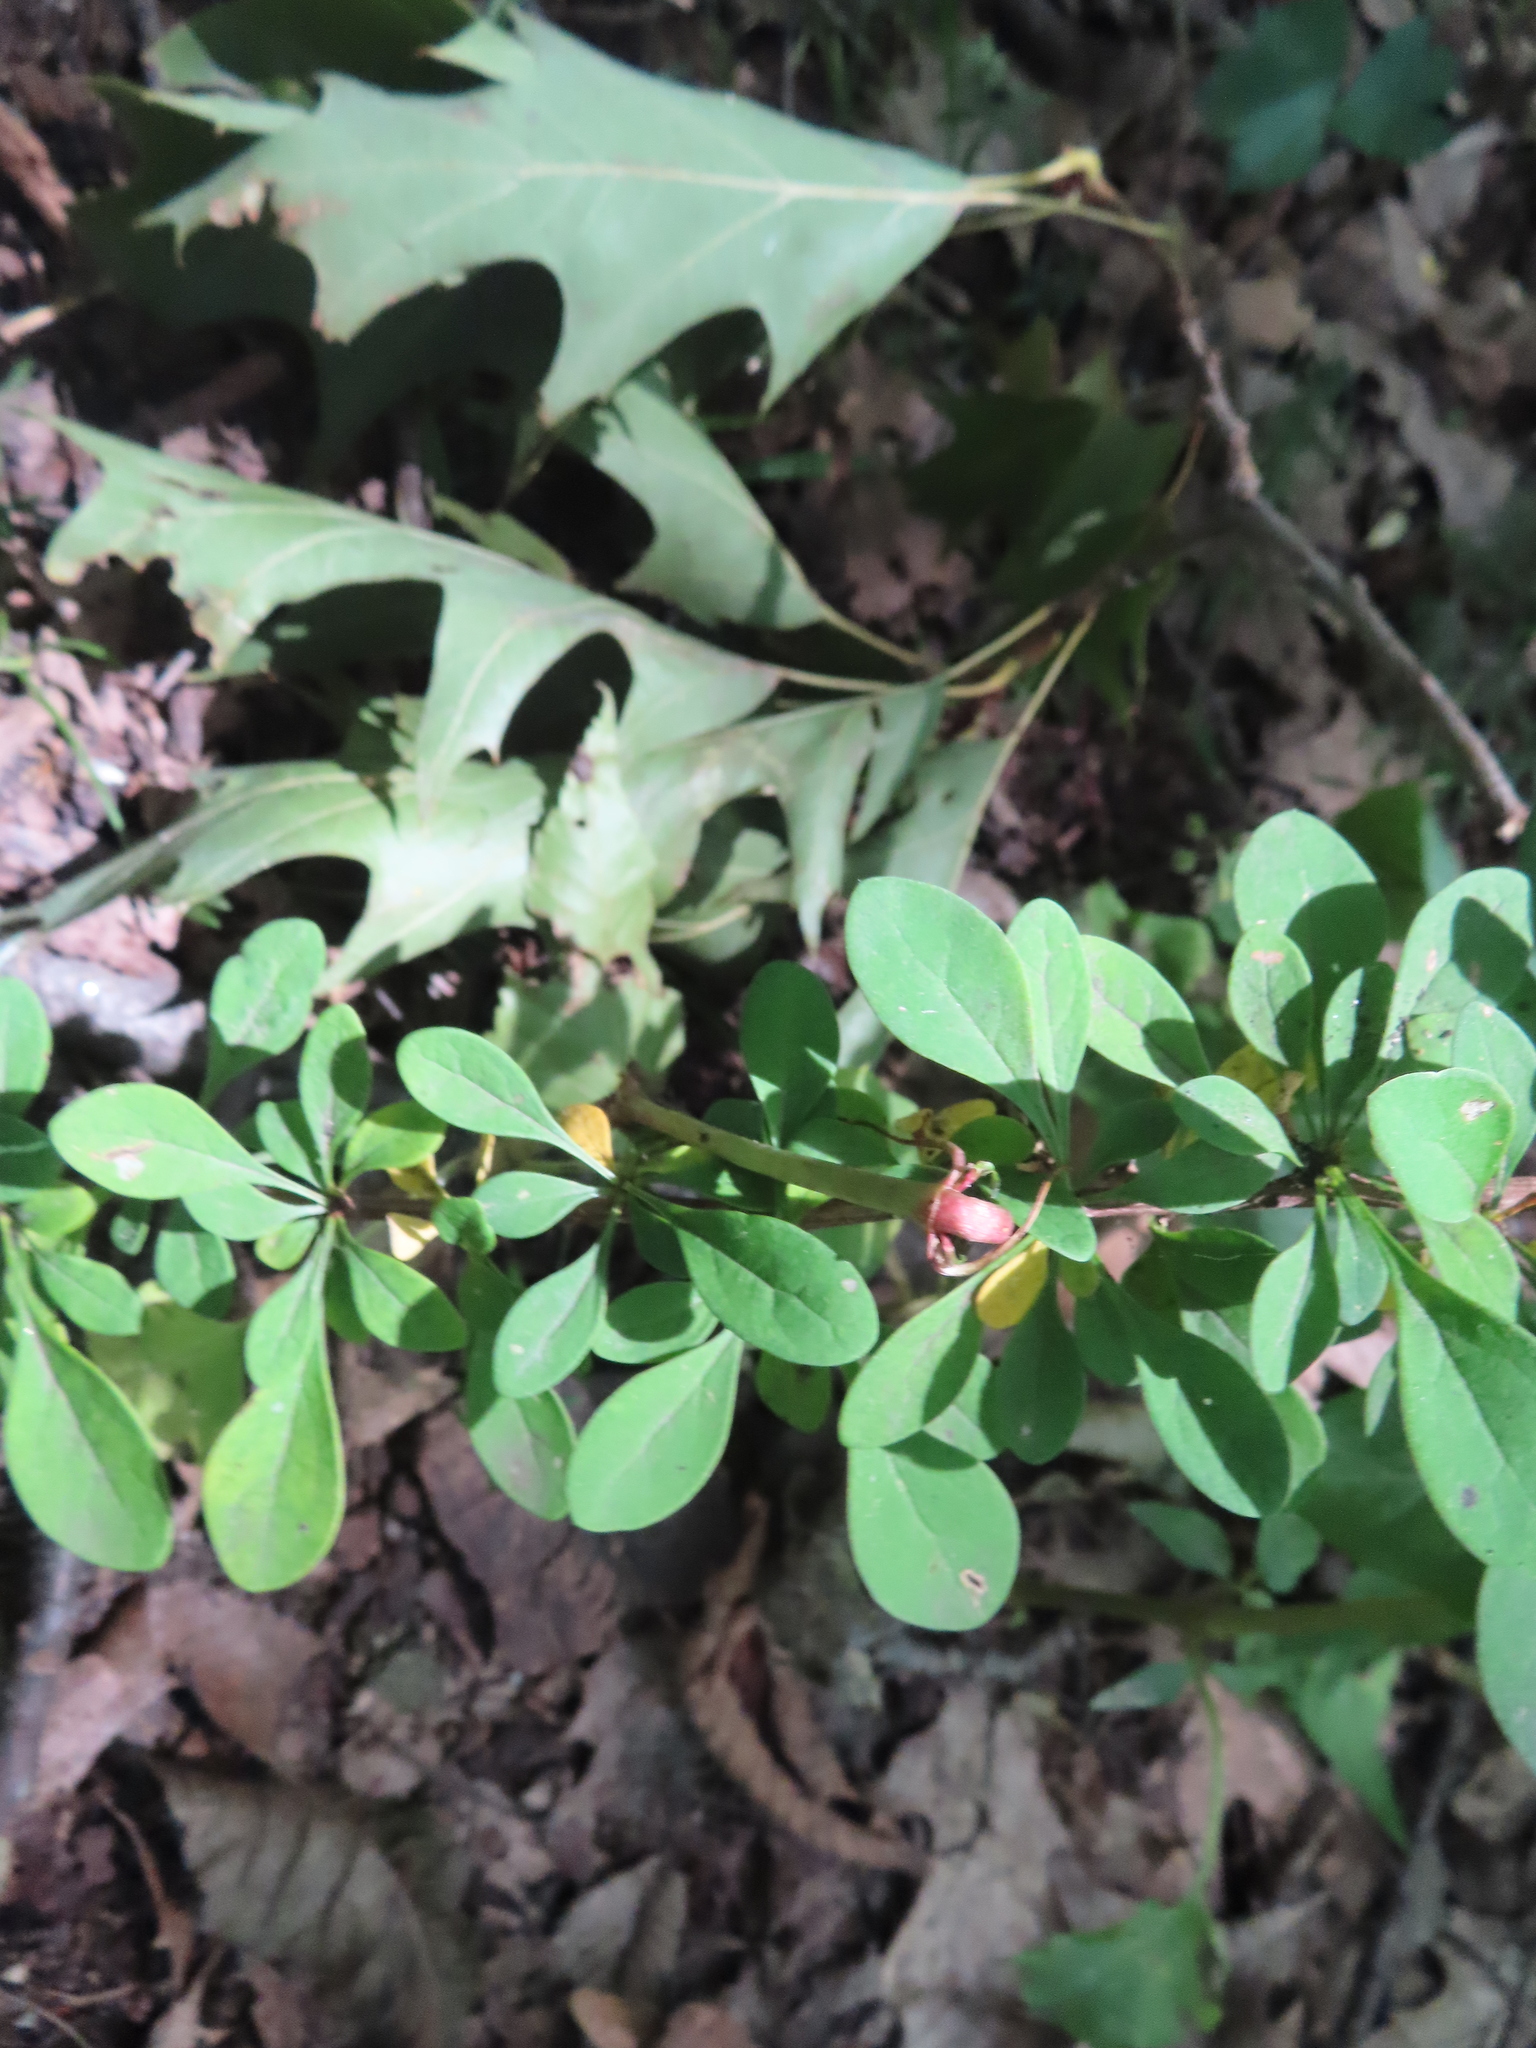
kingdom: Plantae
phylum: Tracheophyta
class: Magnoliopsida
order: Ranunculales
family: Berberidaceae
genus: Berberis
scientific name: Berberis thunbergii
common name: Japanese barberry
